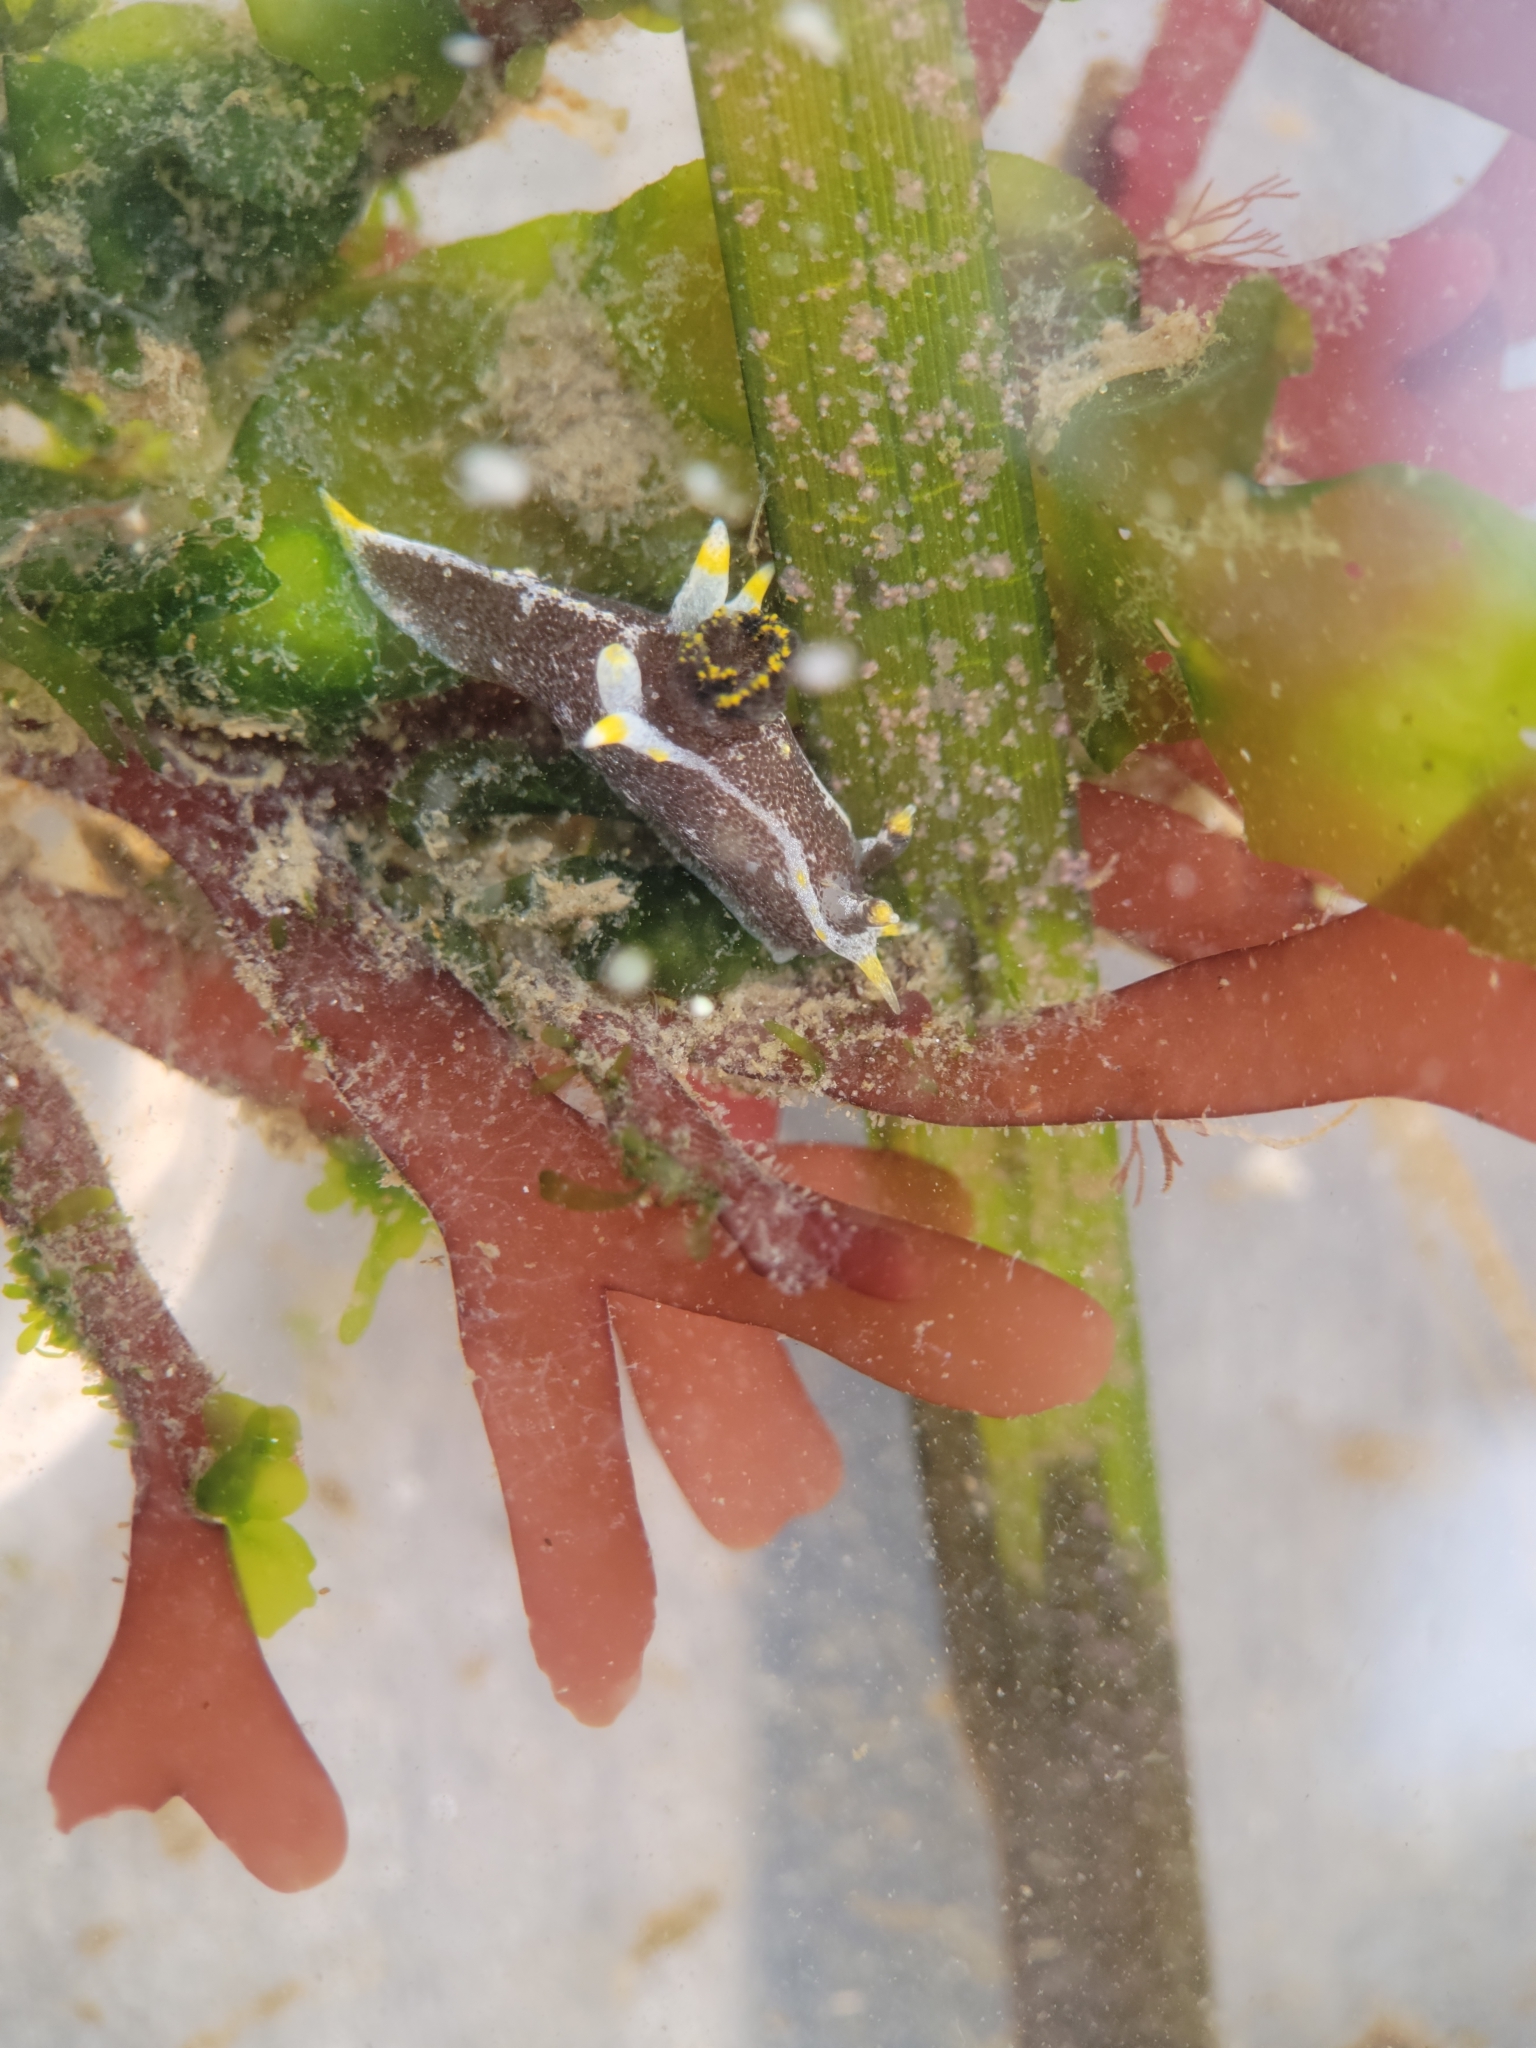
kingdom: Animalia
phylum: Mollusca
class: Gastropoda
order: Nudibranchia
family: Polyceridae
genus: Polycera
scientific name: Polycera hedgpethi
